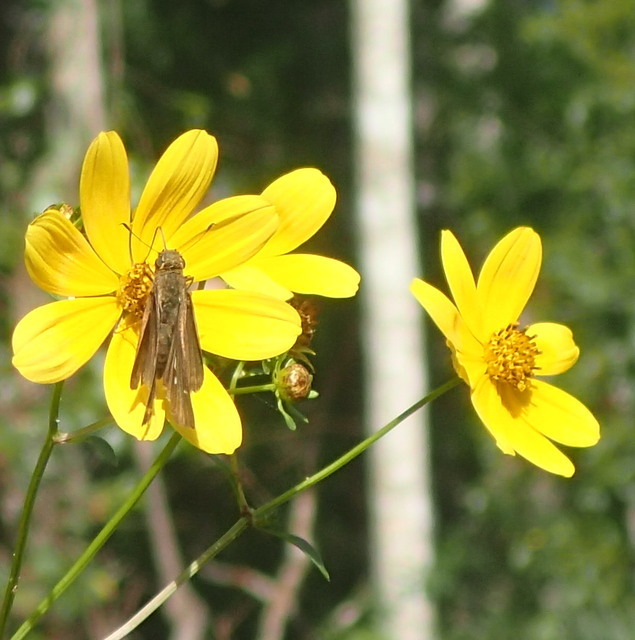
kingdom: Animalia
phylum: Arthropoda
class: Insecta
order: Lepidoptera
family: Hesperiidae
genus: Panoquina
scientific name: Panoquina ocola
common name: Ocola skipper
